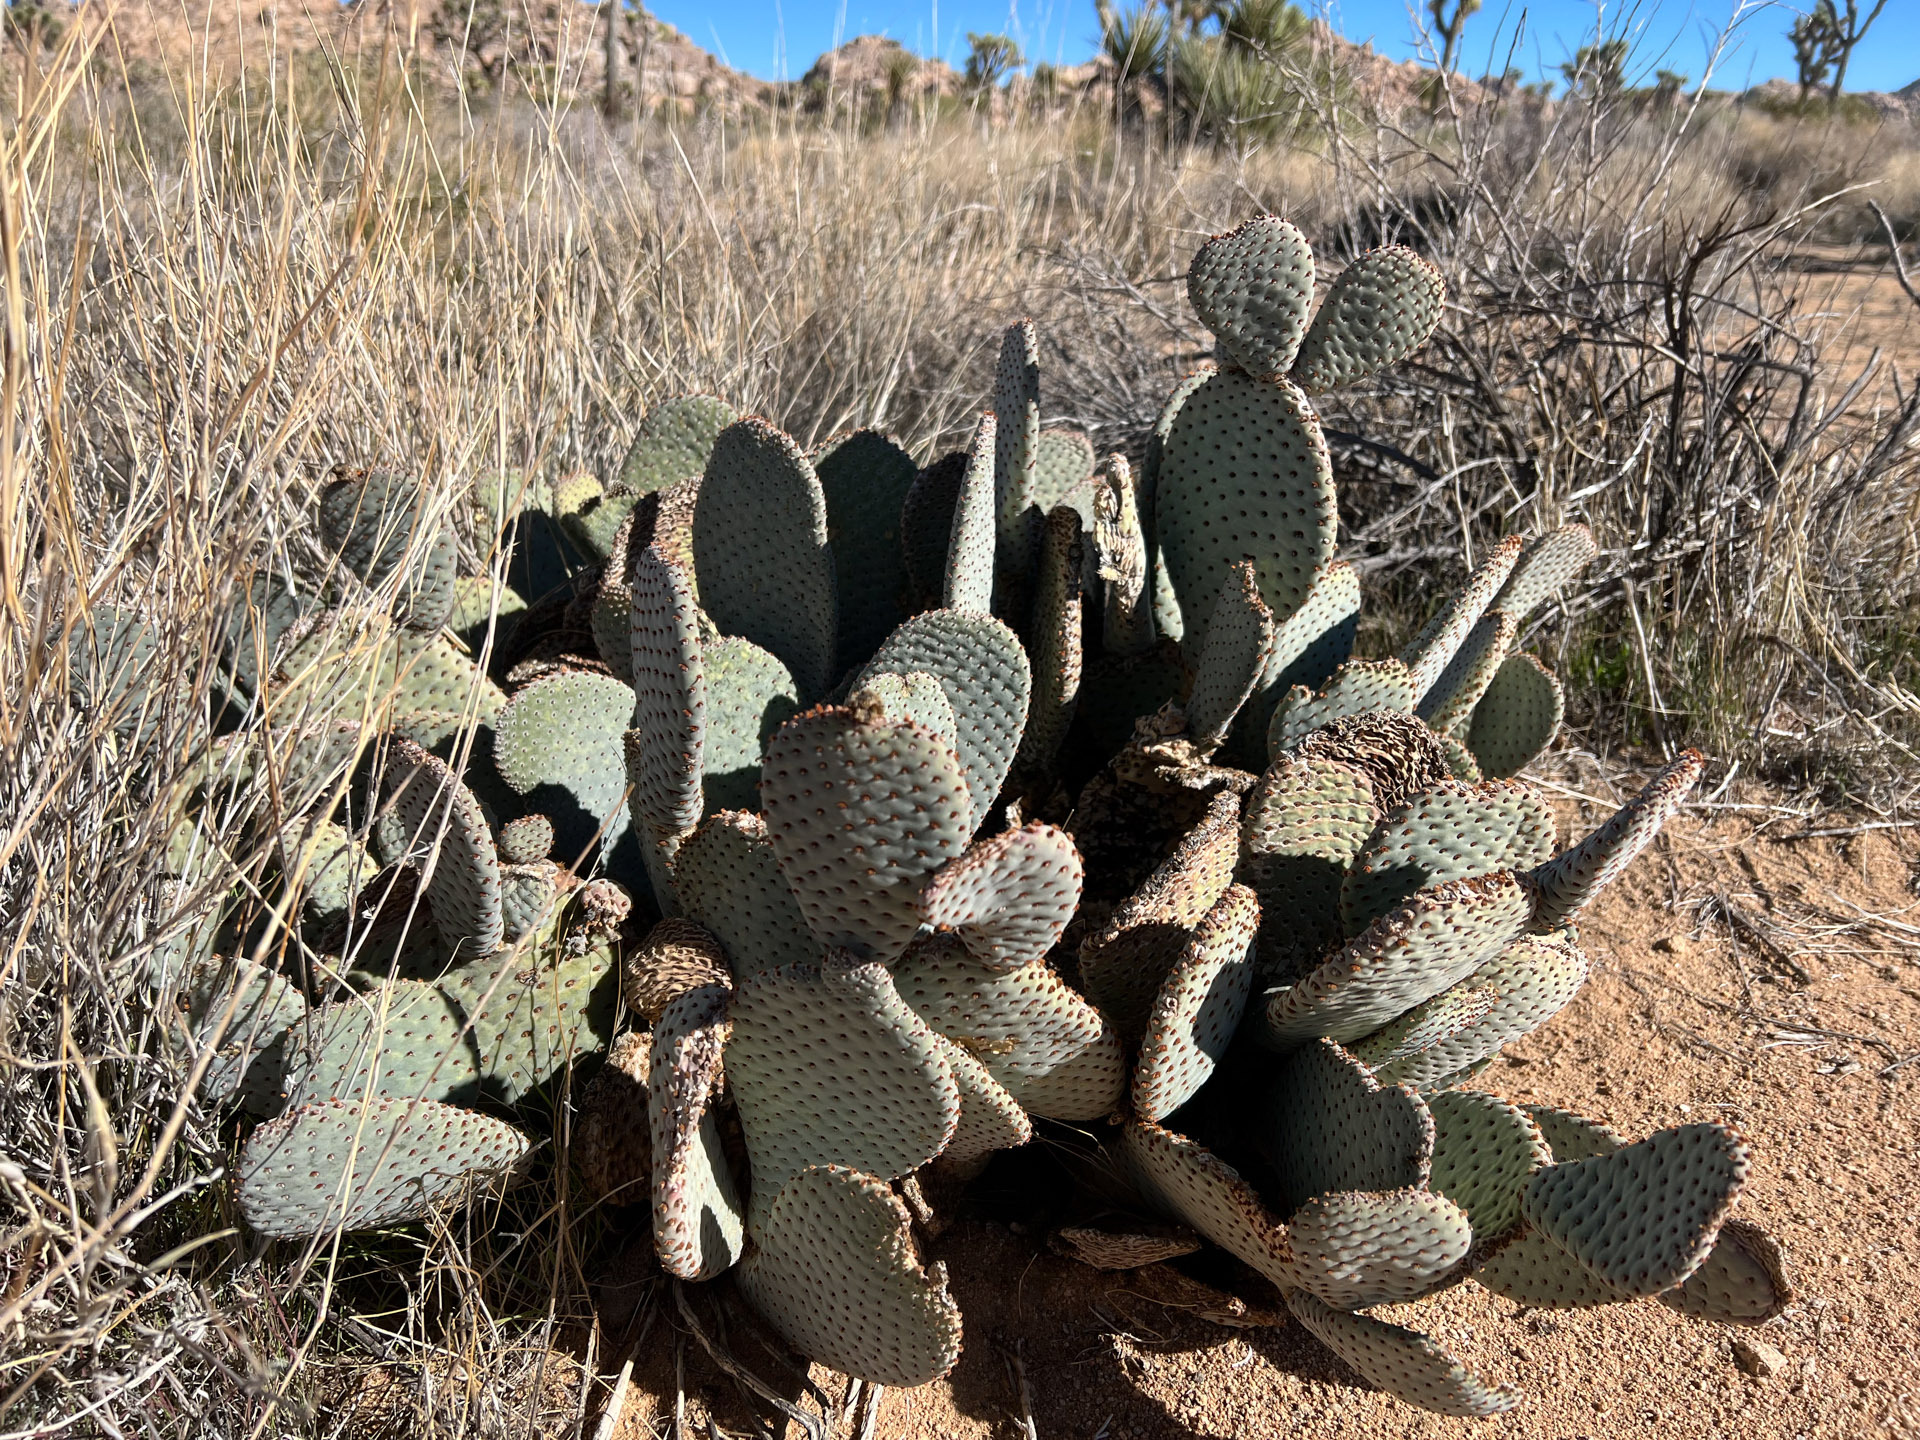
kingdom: Plantae
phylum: Tracheophyta
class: Magnoliopsida
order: Caryophyllales
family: Cactaceae
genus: Opuntia
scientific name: Opuntia basilaris
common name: Beavertail prickly-pear
